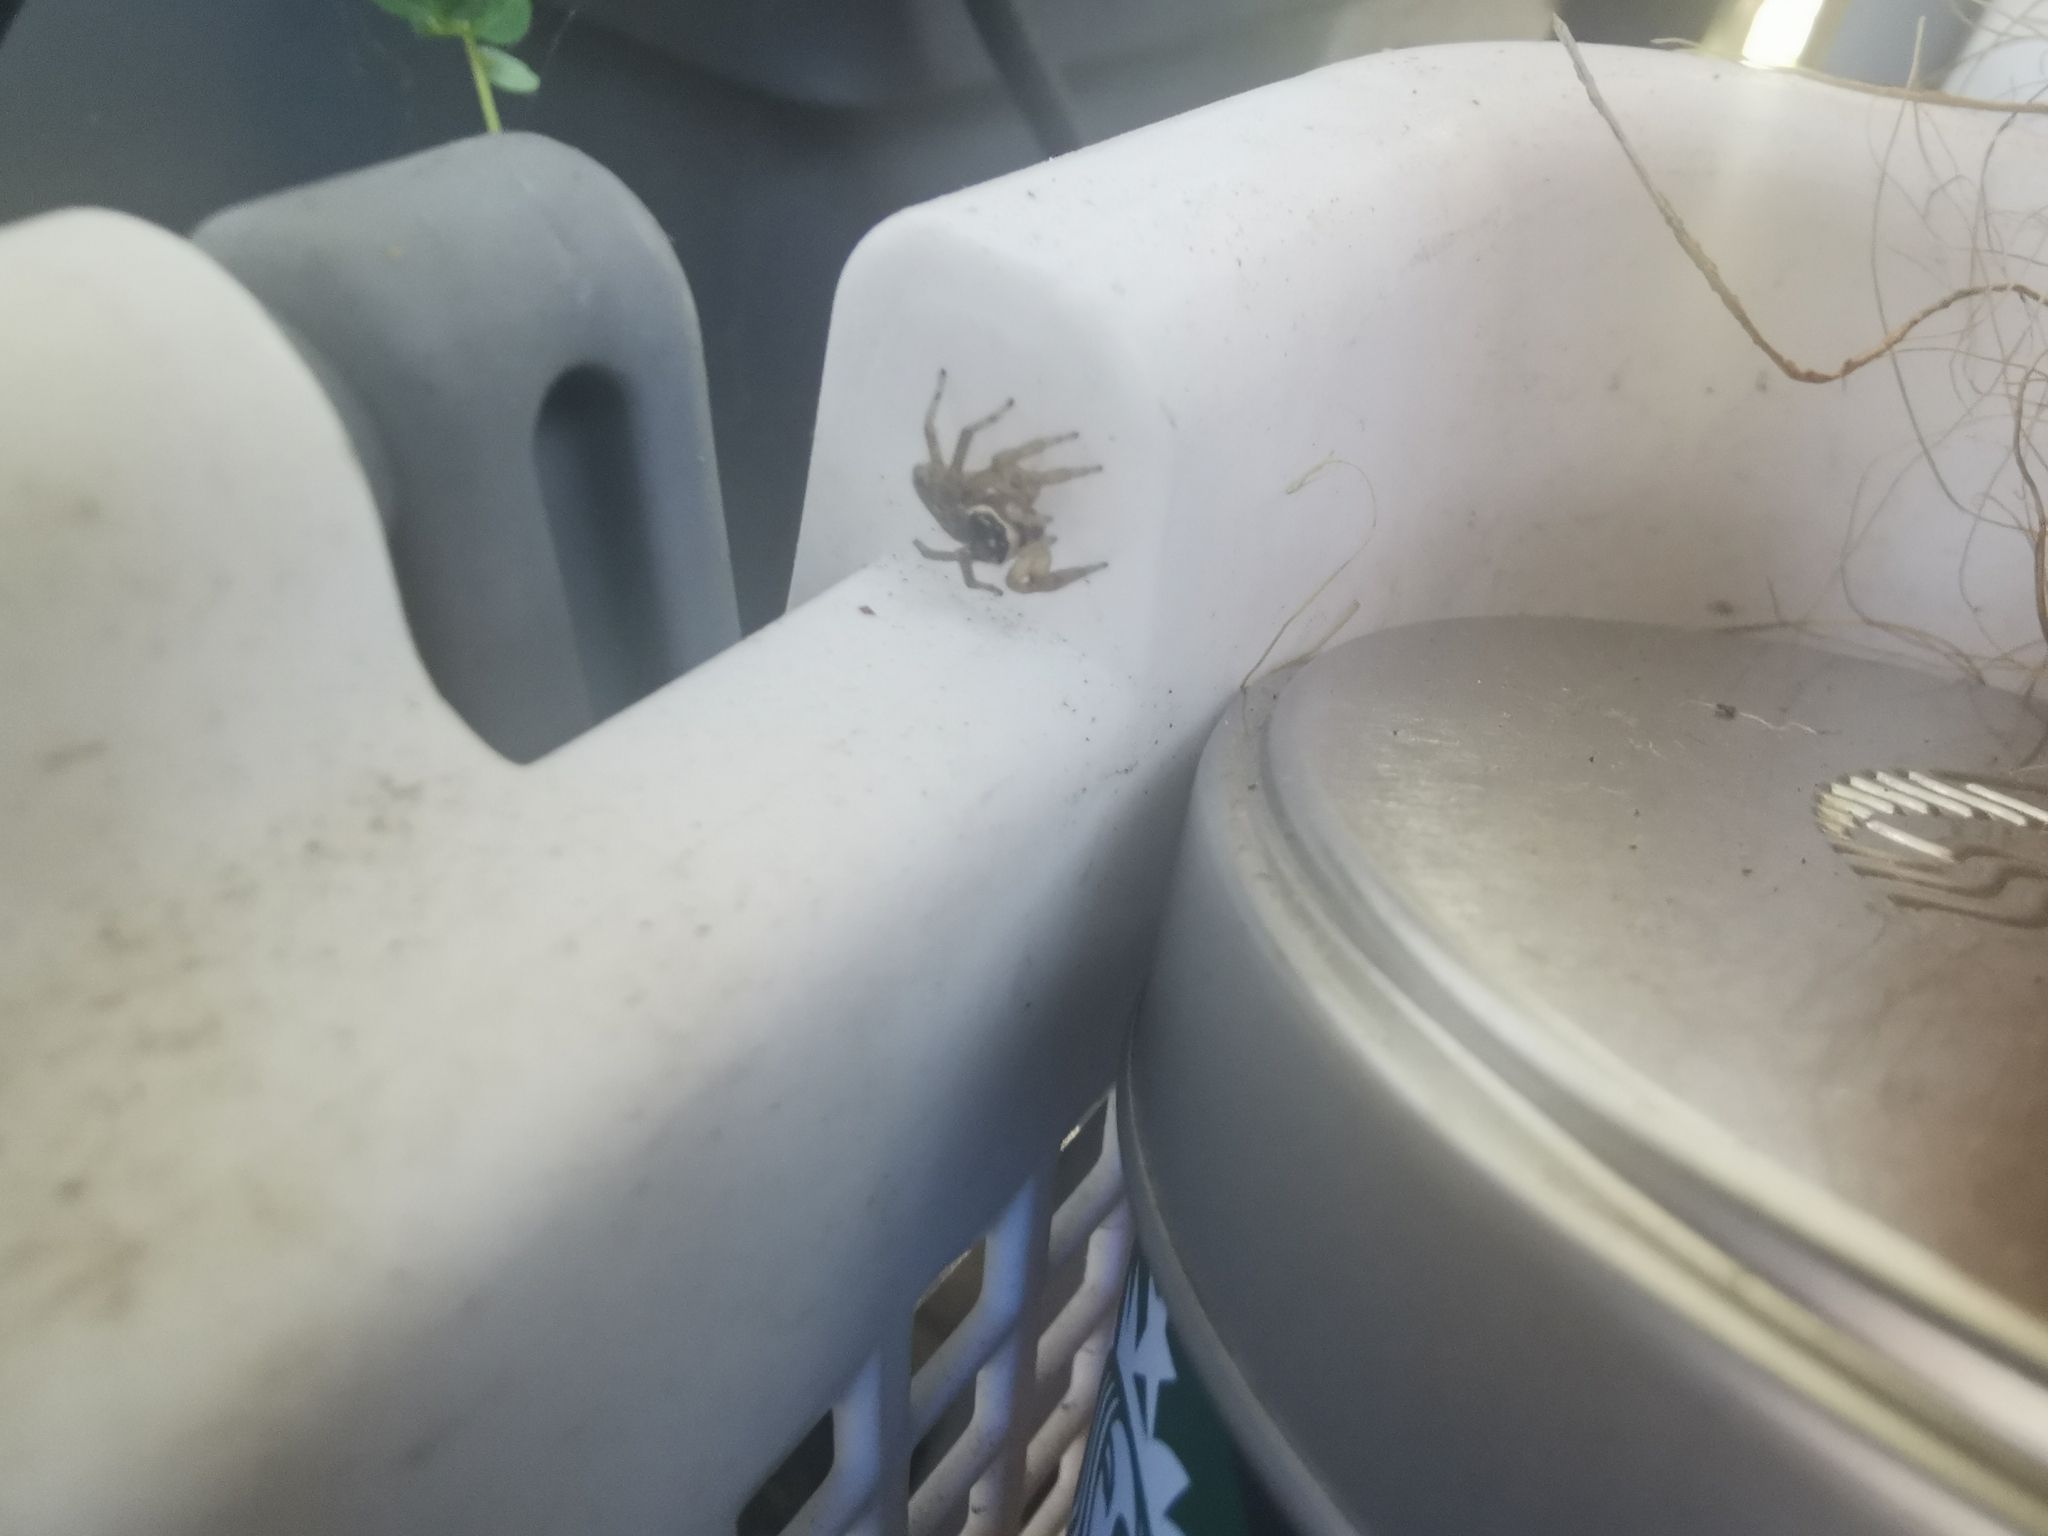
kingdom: Animalia
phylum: Arthropoda
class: Arachnida
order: Araneae
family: Salticidae
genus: Maratus
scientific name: Maratus griseus
